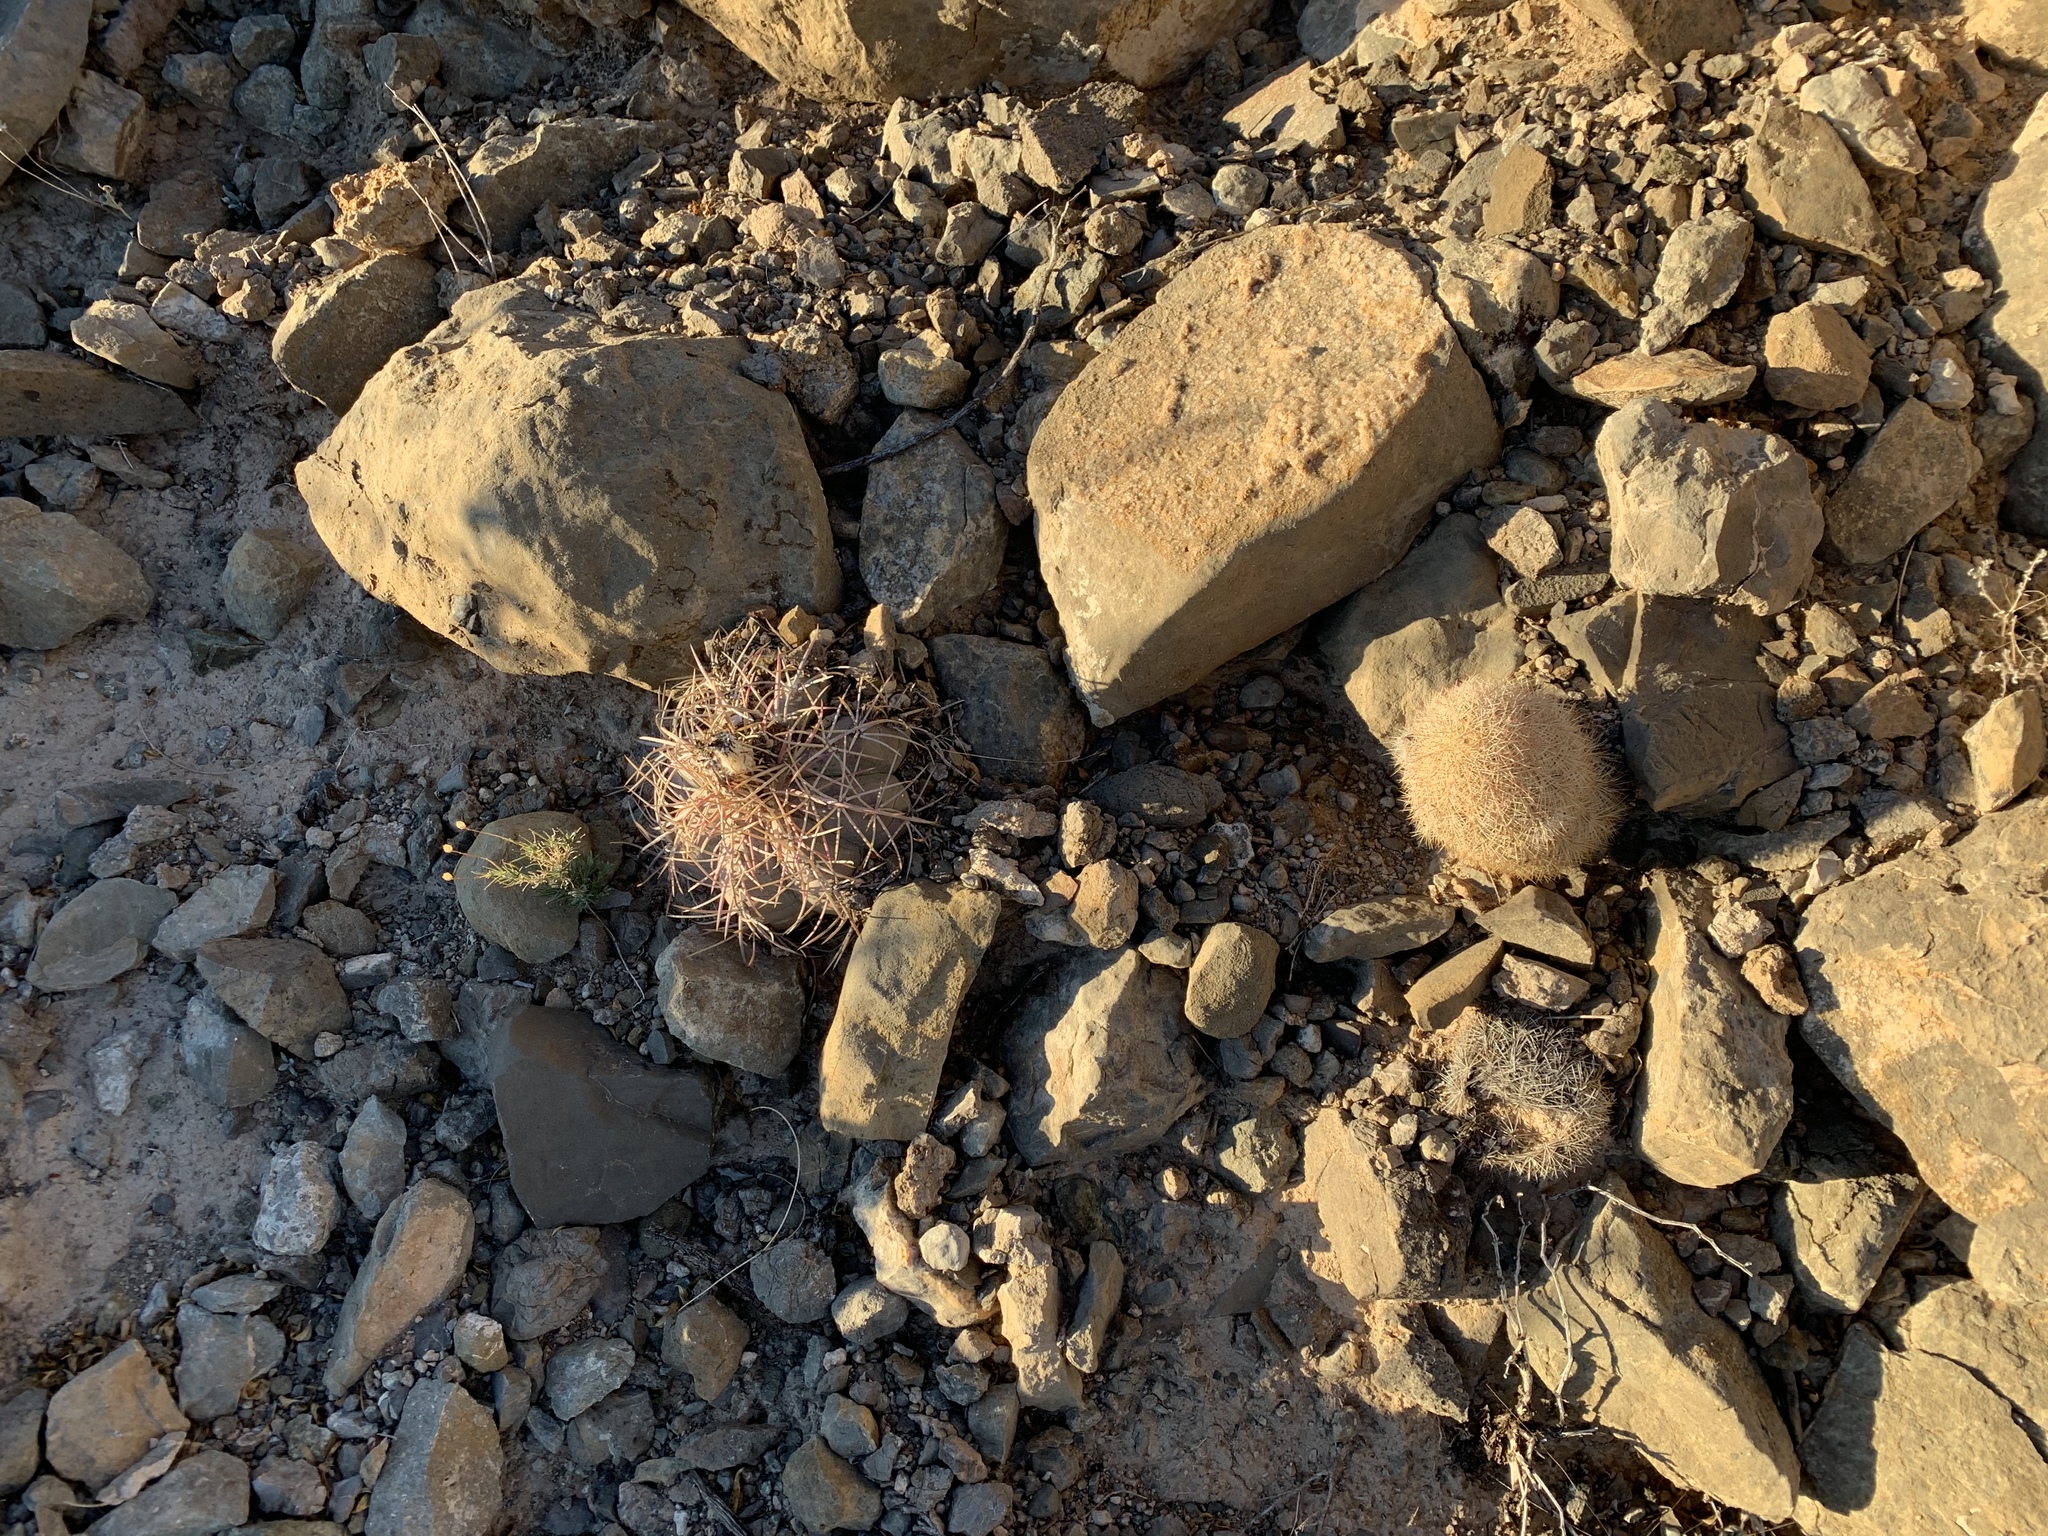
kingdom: Plantae
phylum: Tracheophyta
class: Magnoliopsida
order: Caryophyllales
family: Cactaceae
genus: Echinocactus
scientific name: Echinocactus horizonthalonius
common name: Devilshead
